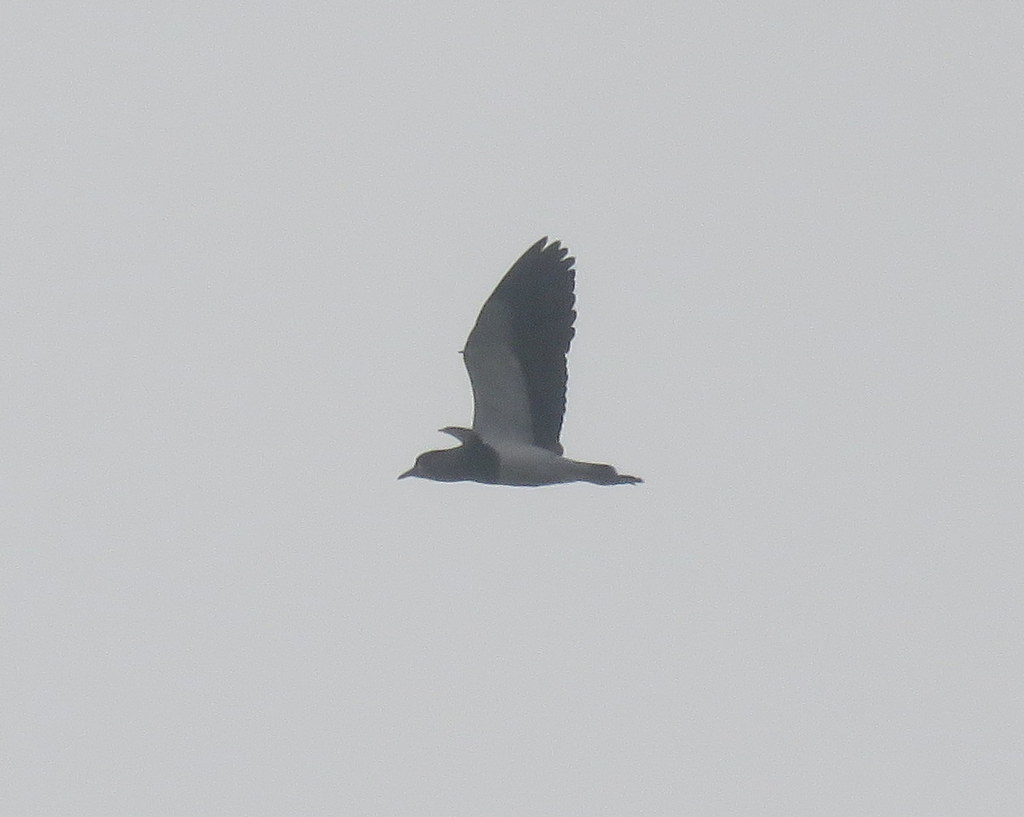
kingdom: Animalia
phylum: Chordata
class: Aves
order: Charadriiformes
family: Charadriidae
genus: Vanellus
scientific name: Vanellus chilensis
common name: Southern lapwing
